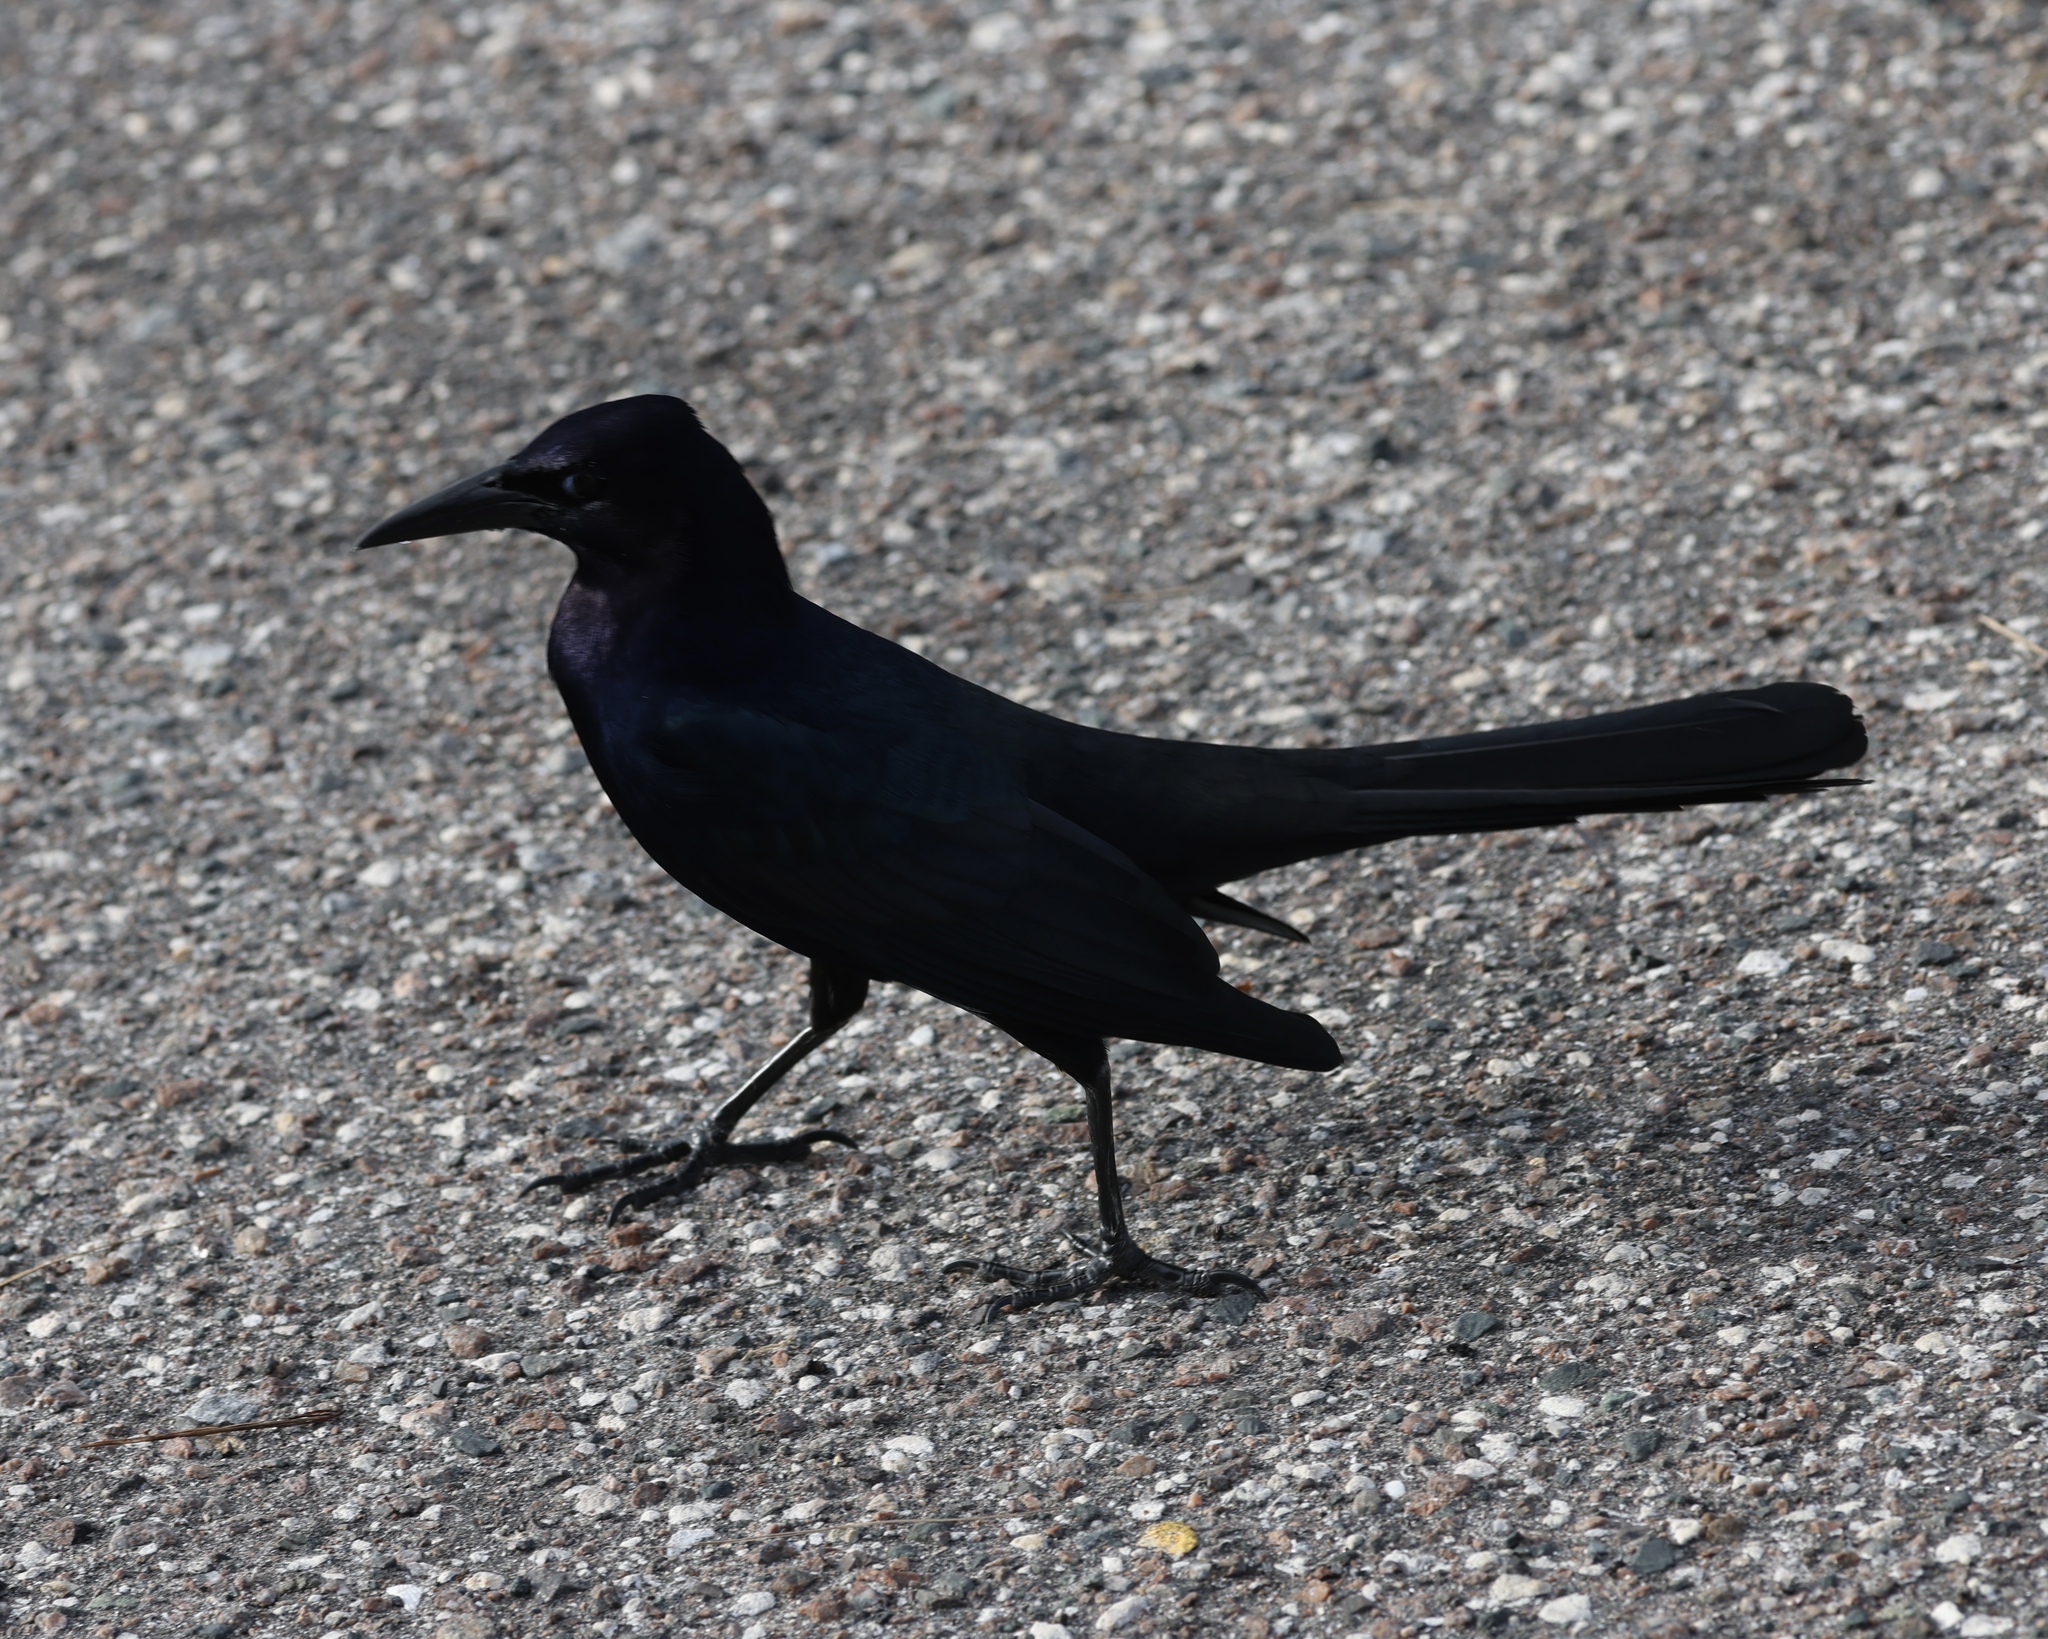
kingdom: Animalia
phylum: Chordata
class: Aves
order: Passeriformes
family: Icteridae
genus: Quiscalus
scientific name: Quiscalus major
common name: Boat-tailed grackle
